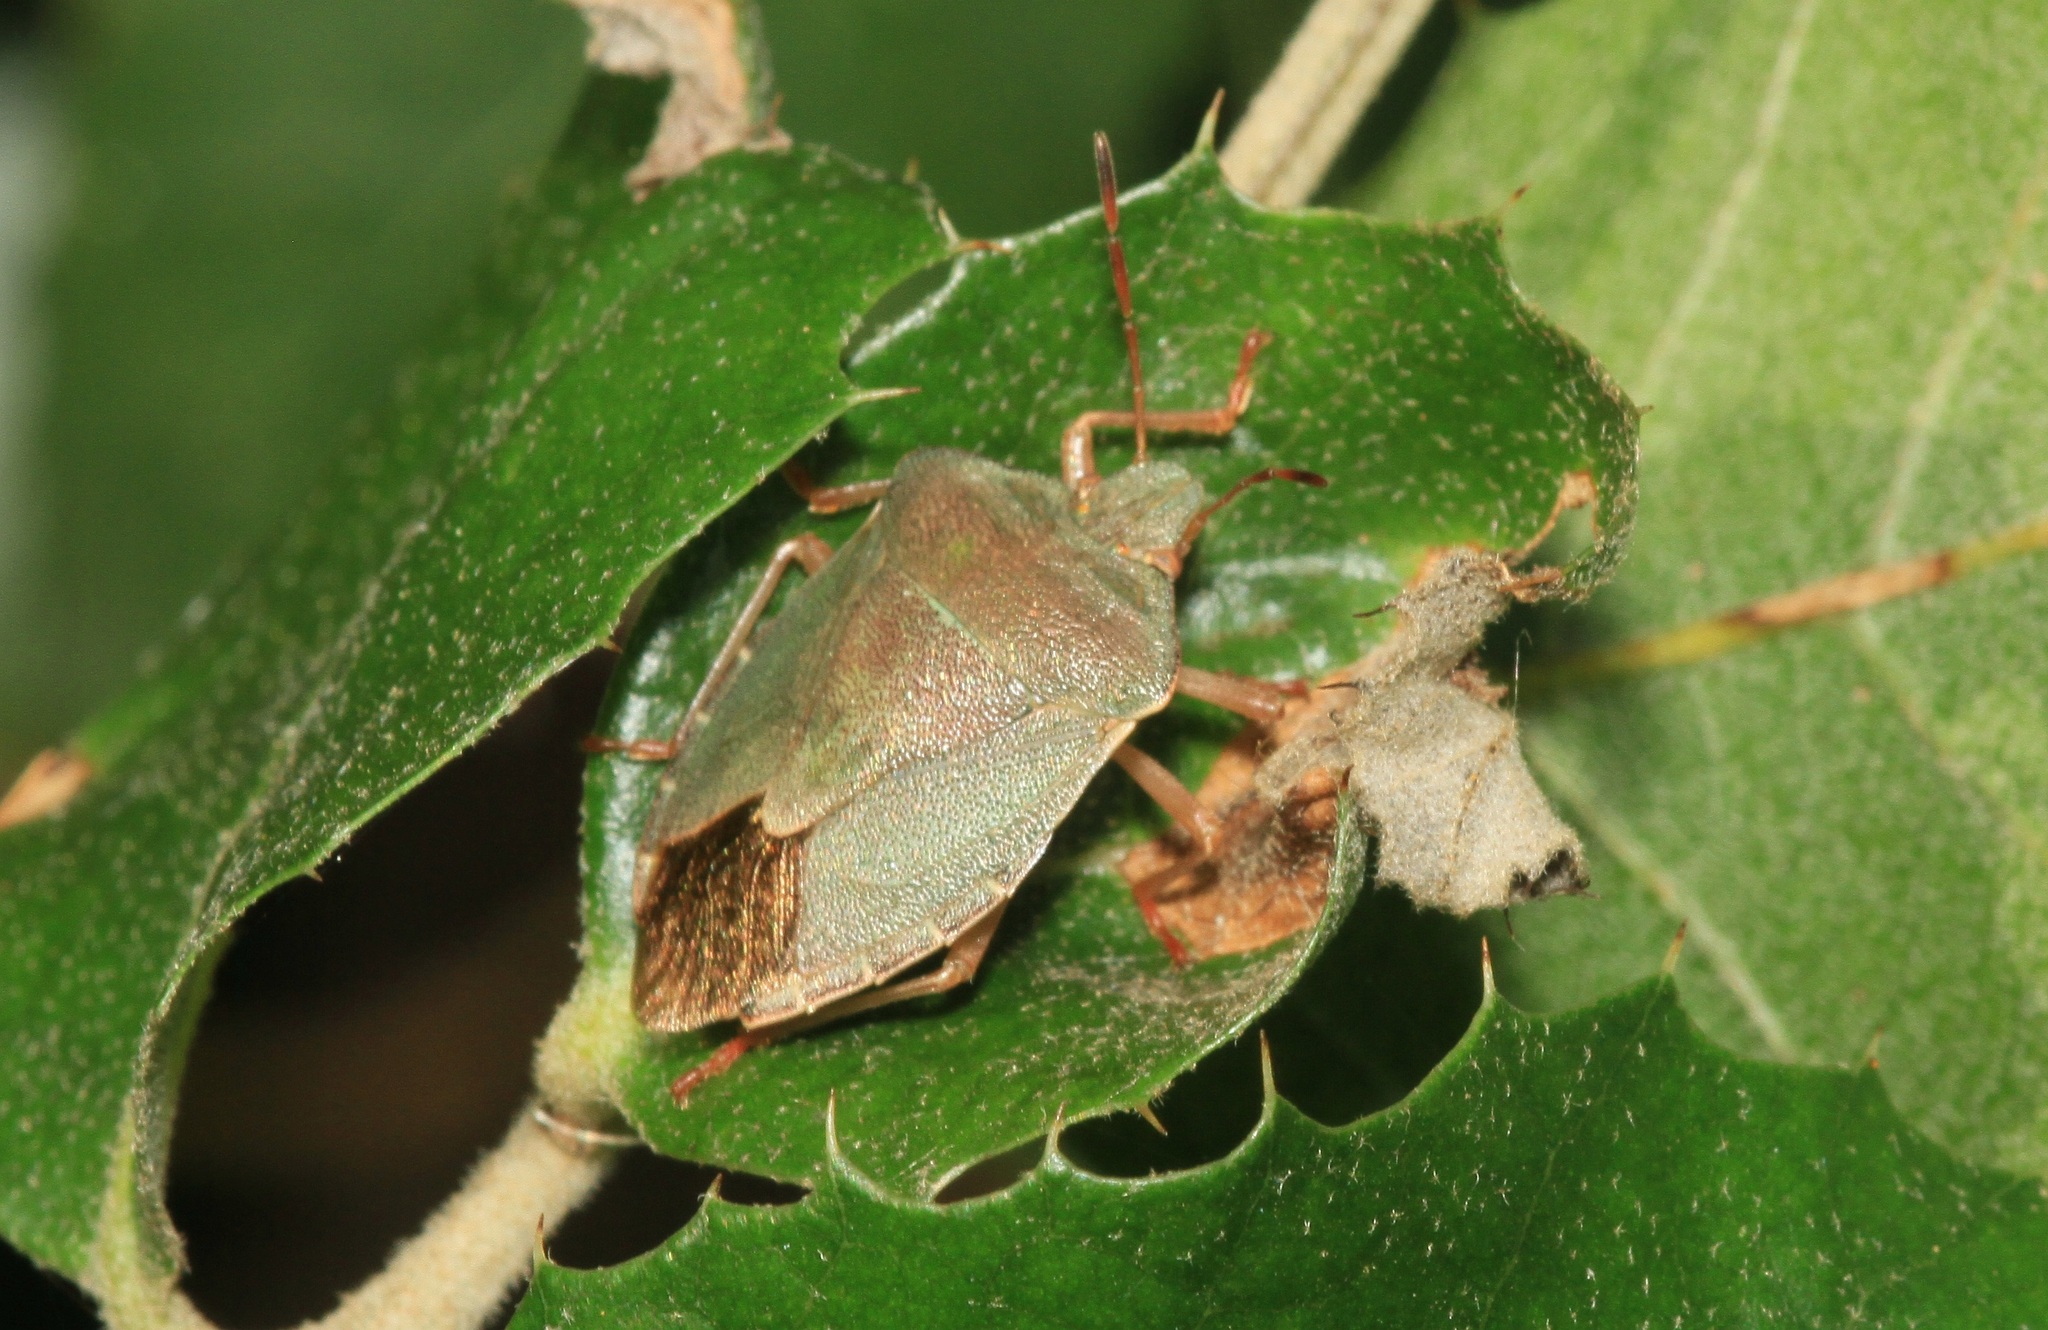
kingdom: Animalia
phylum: Arthropoda
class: Insecta
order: Hemiptera
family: Pentatomidae
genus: Palomena
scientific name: Palomena prasina
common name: Green shieldbug
